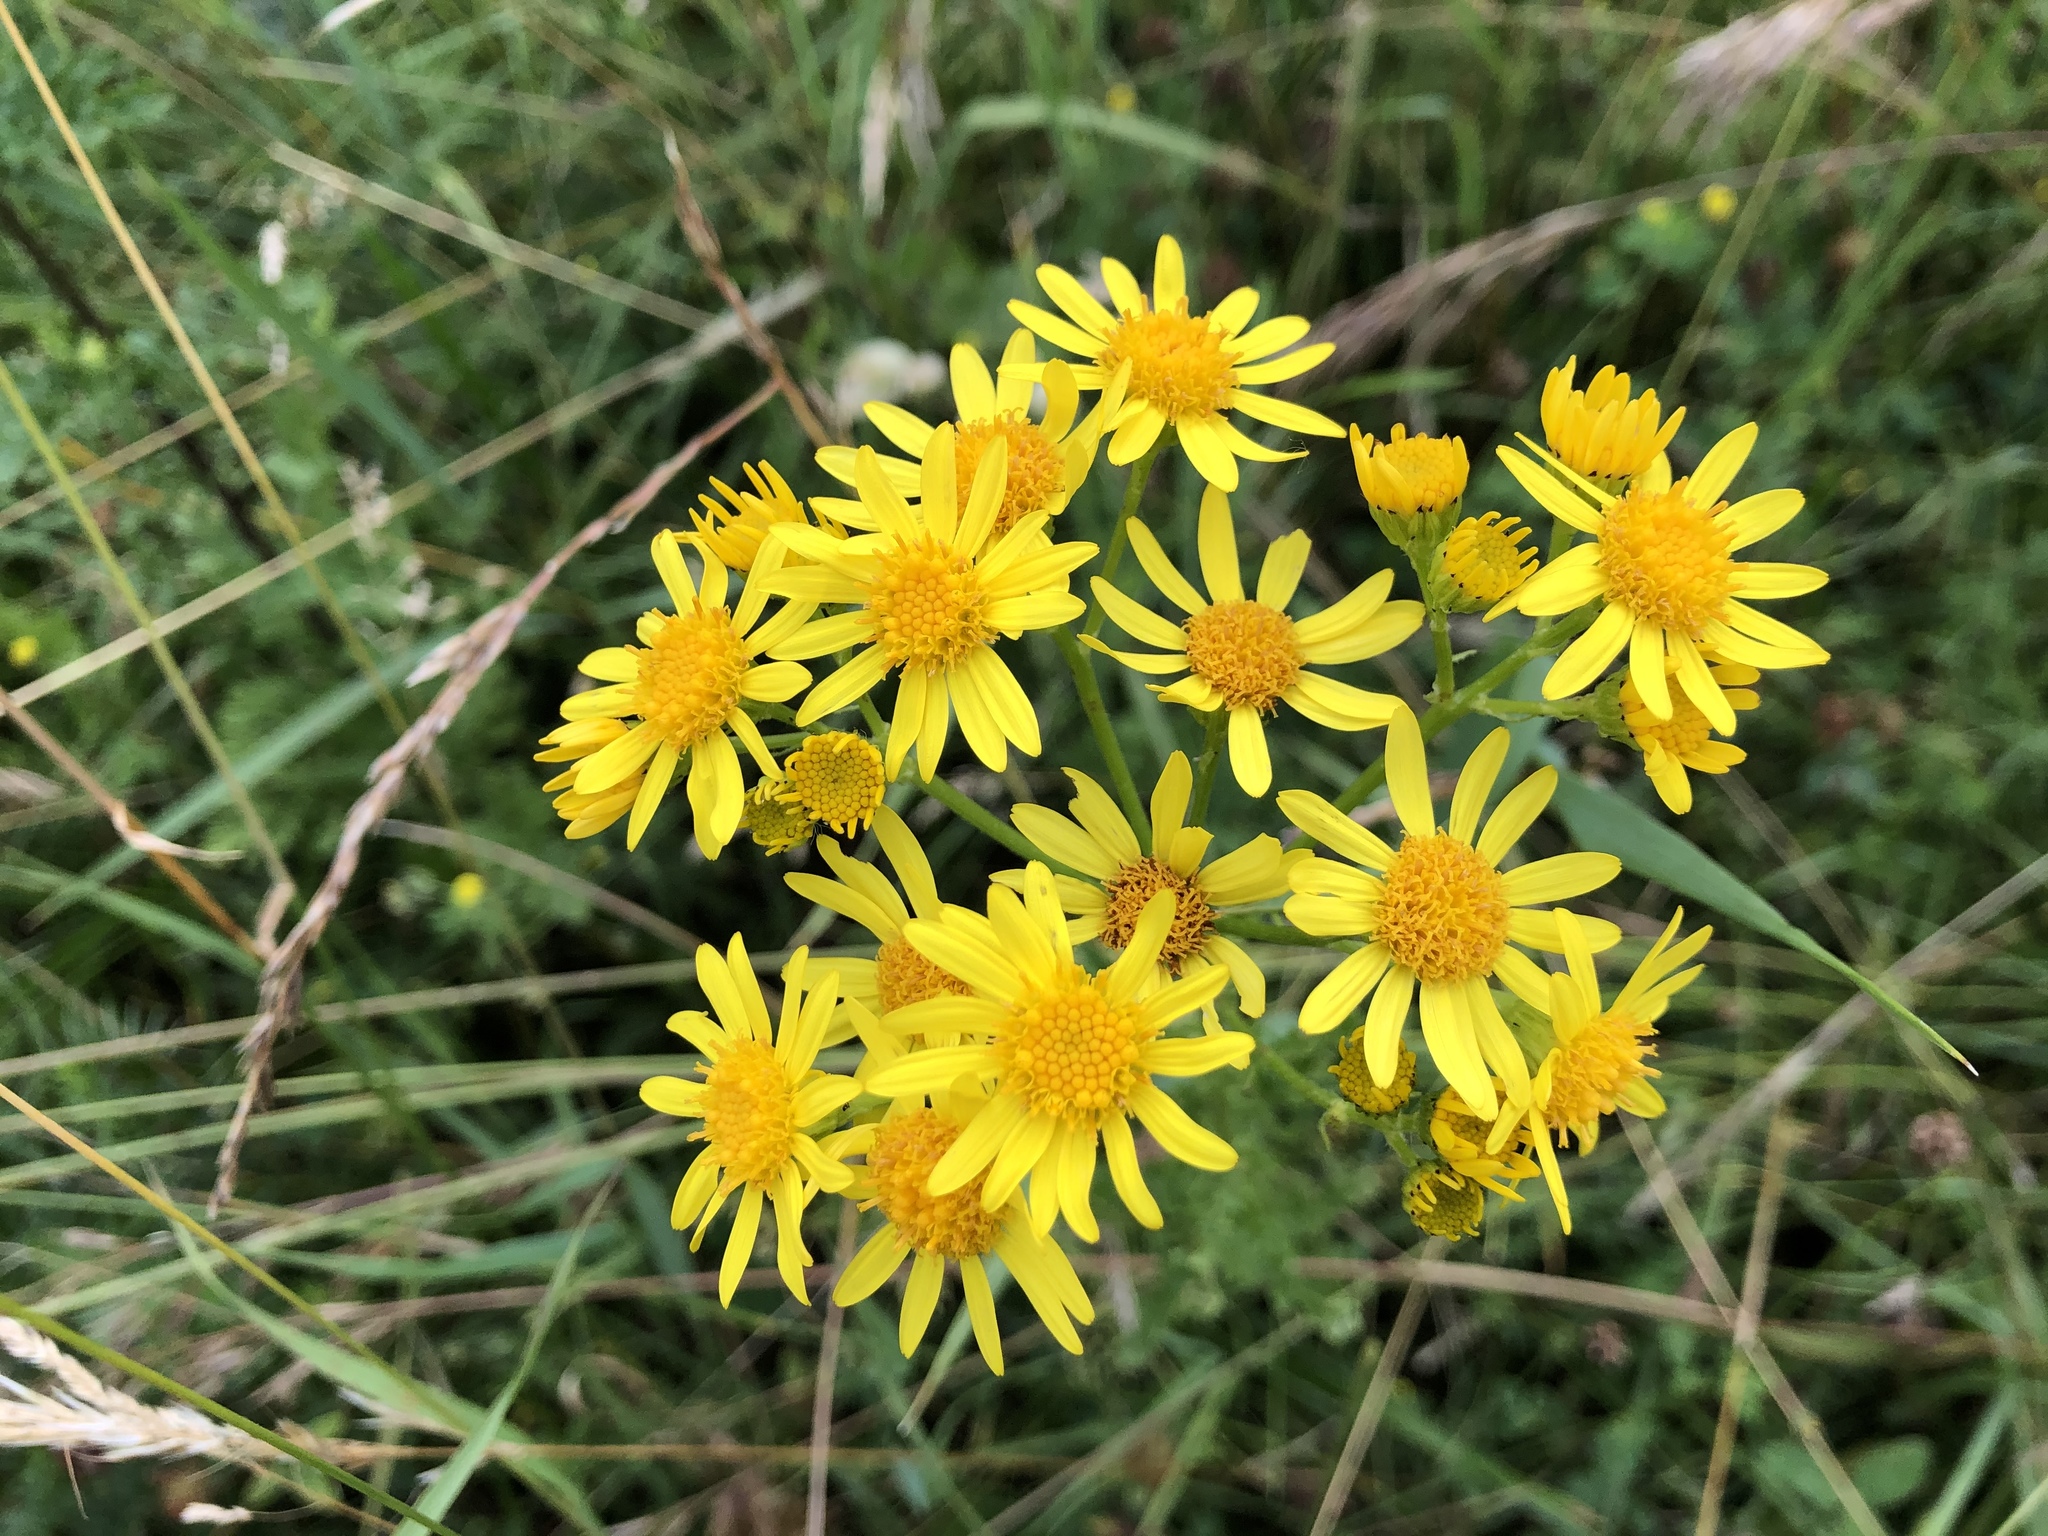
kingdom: Plantae
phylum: Tracheophyta
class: Magnoliopsida
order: Asterales
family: Asteraceae
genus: Jacobaea
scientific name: Jacobaea vulgaris
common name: Stinking willie
